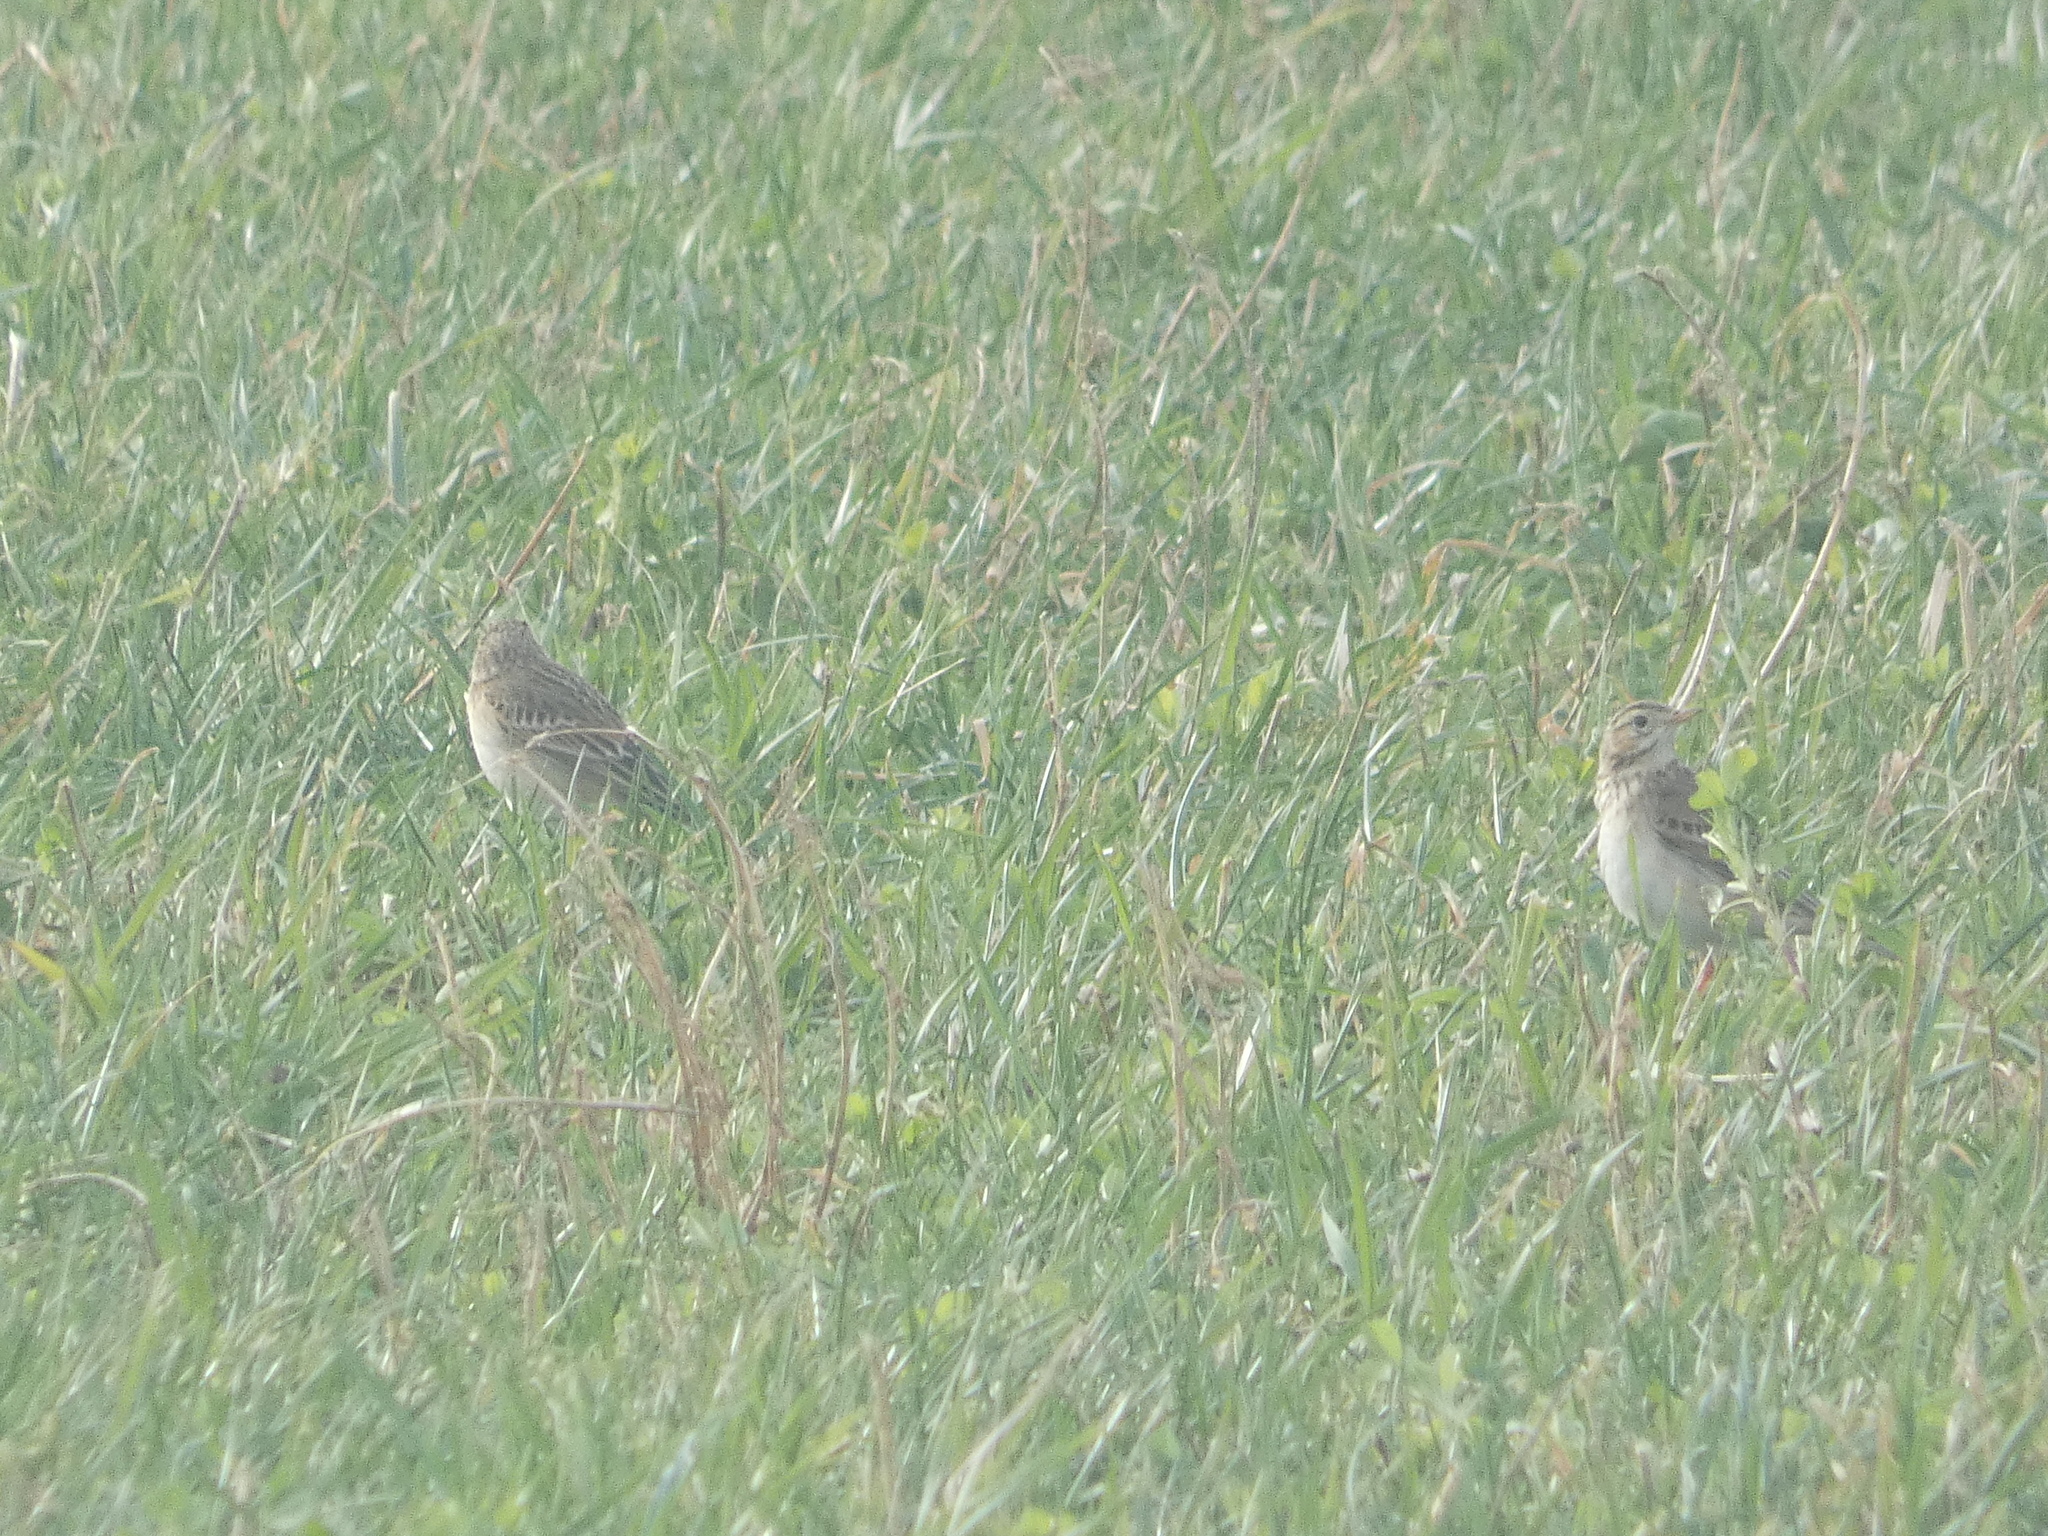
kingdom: Animalia
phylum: Chordata
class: Aves
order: Passeriformes
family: Motacillidae
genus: Anthus
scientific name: Anthus richardi
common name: Richard's pipit
